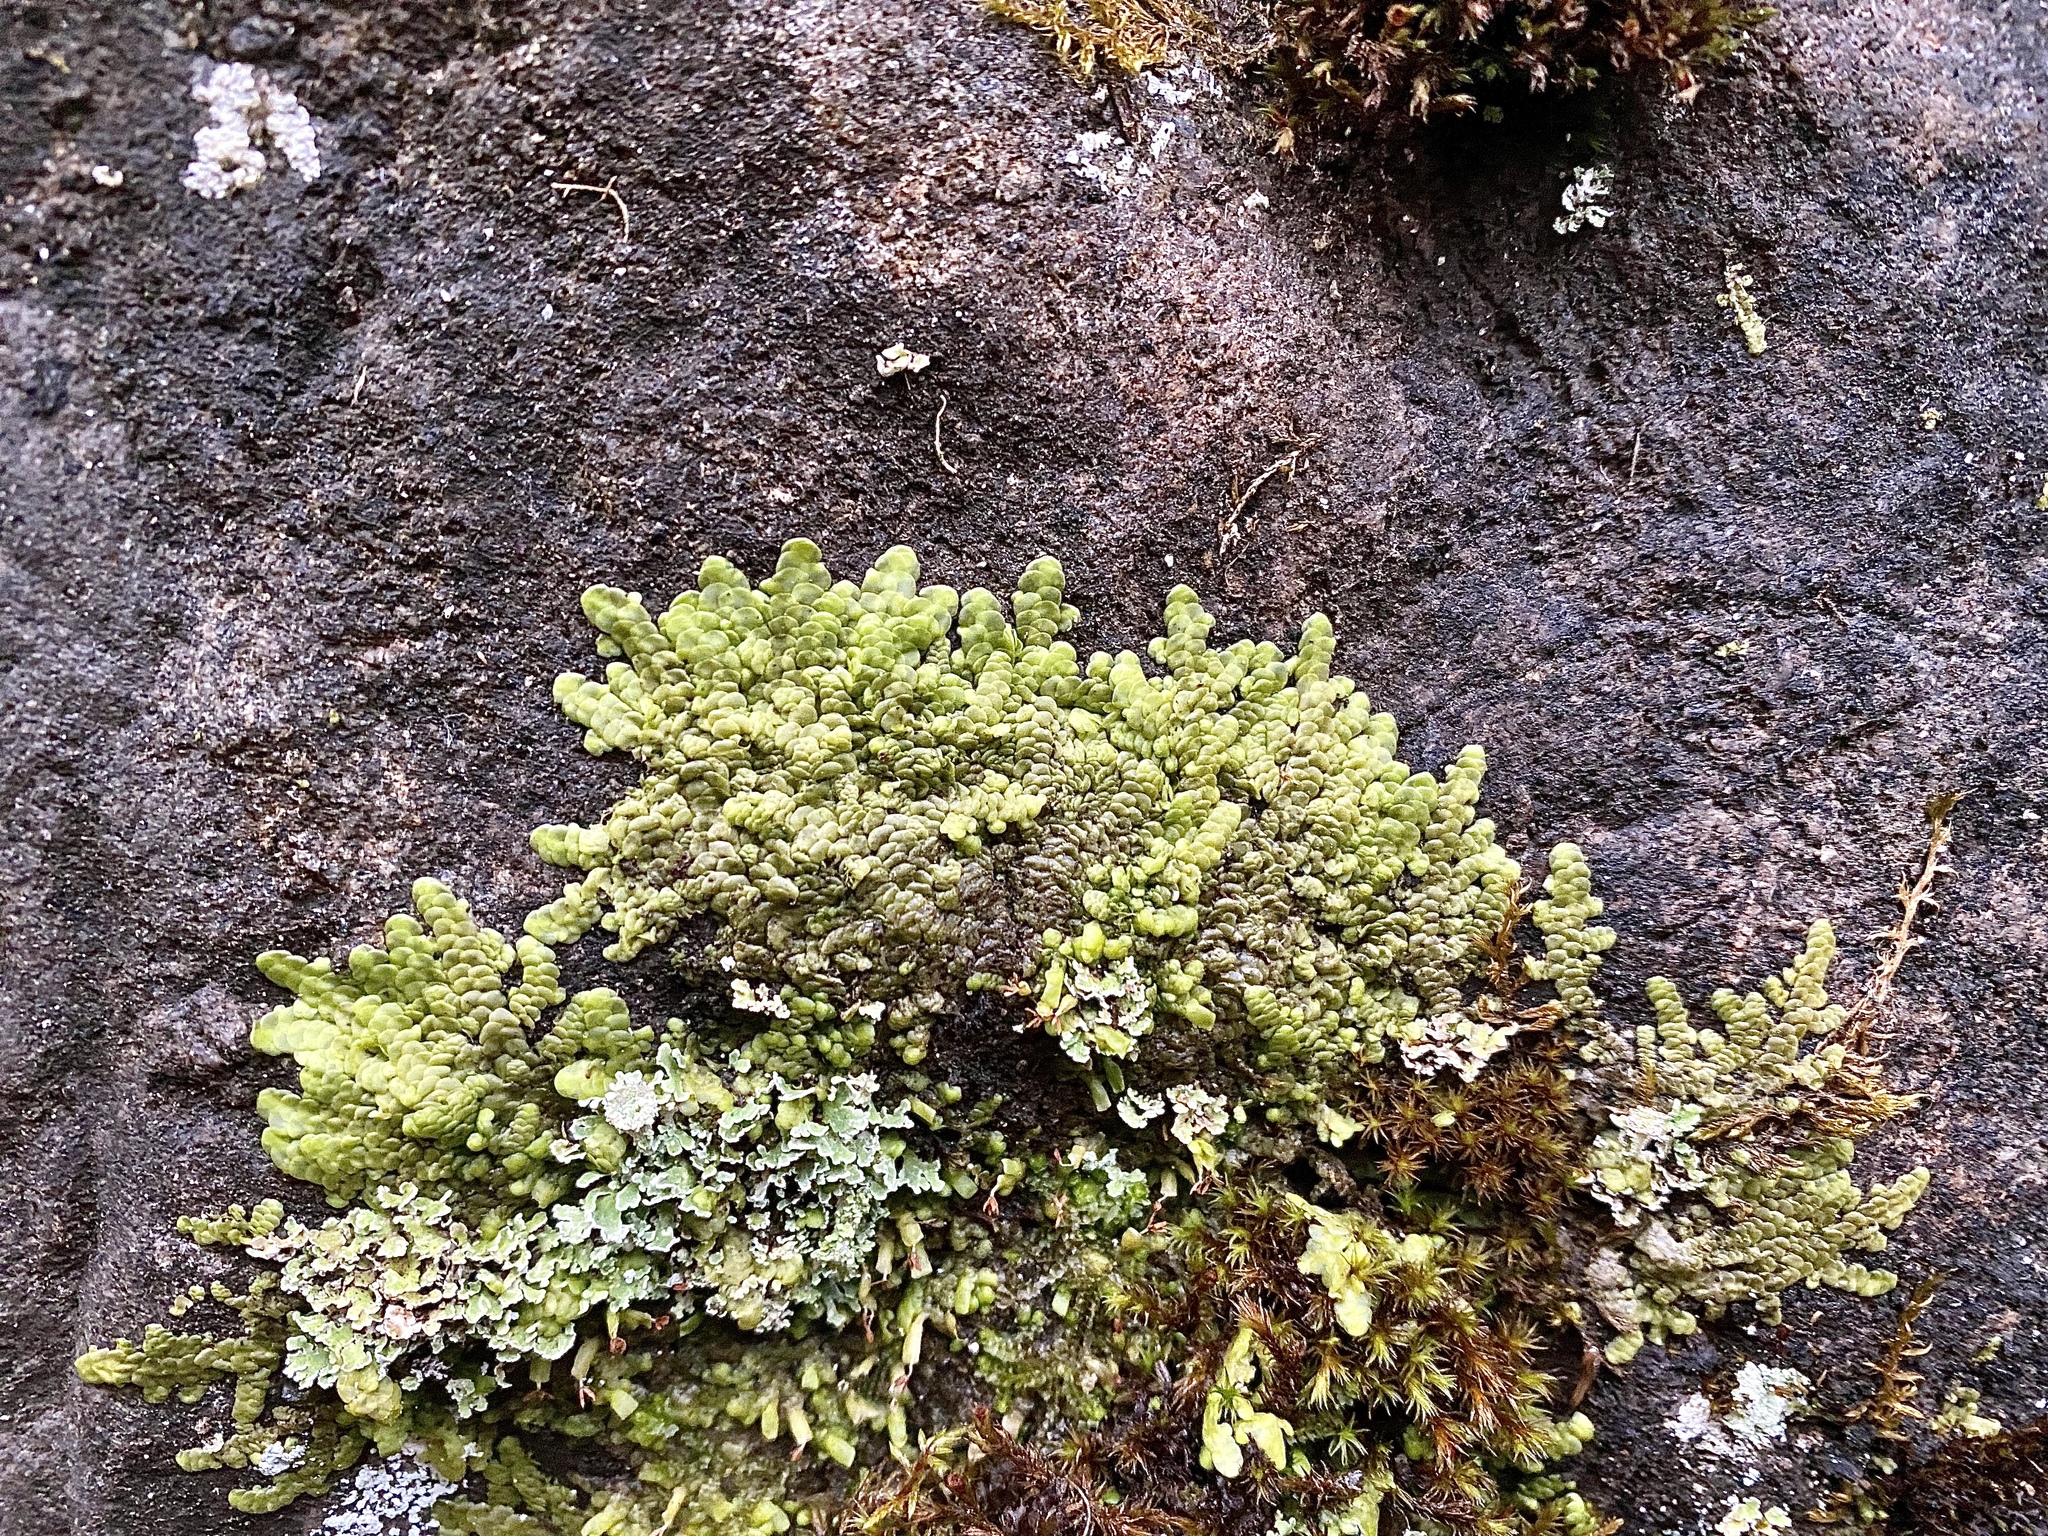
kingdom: Plantae
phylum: Marchantiophyta
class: Jungermanniopsida
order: Porellales
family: Radulaceae
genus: Radula
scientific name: Radula complanata
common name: Flat-leaved scalewort
